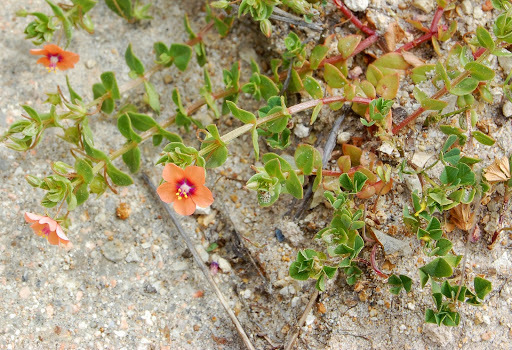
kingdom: Plantae
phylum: Tracheophyta
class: Magnoliopsida
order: Ericales
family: Primulaceae
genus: Lysimachia
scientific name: Lysimachia arvensis
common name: Scarlet pimpernel
